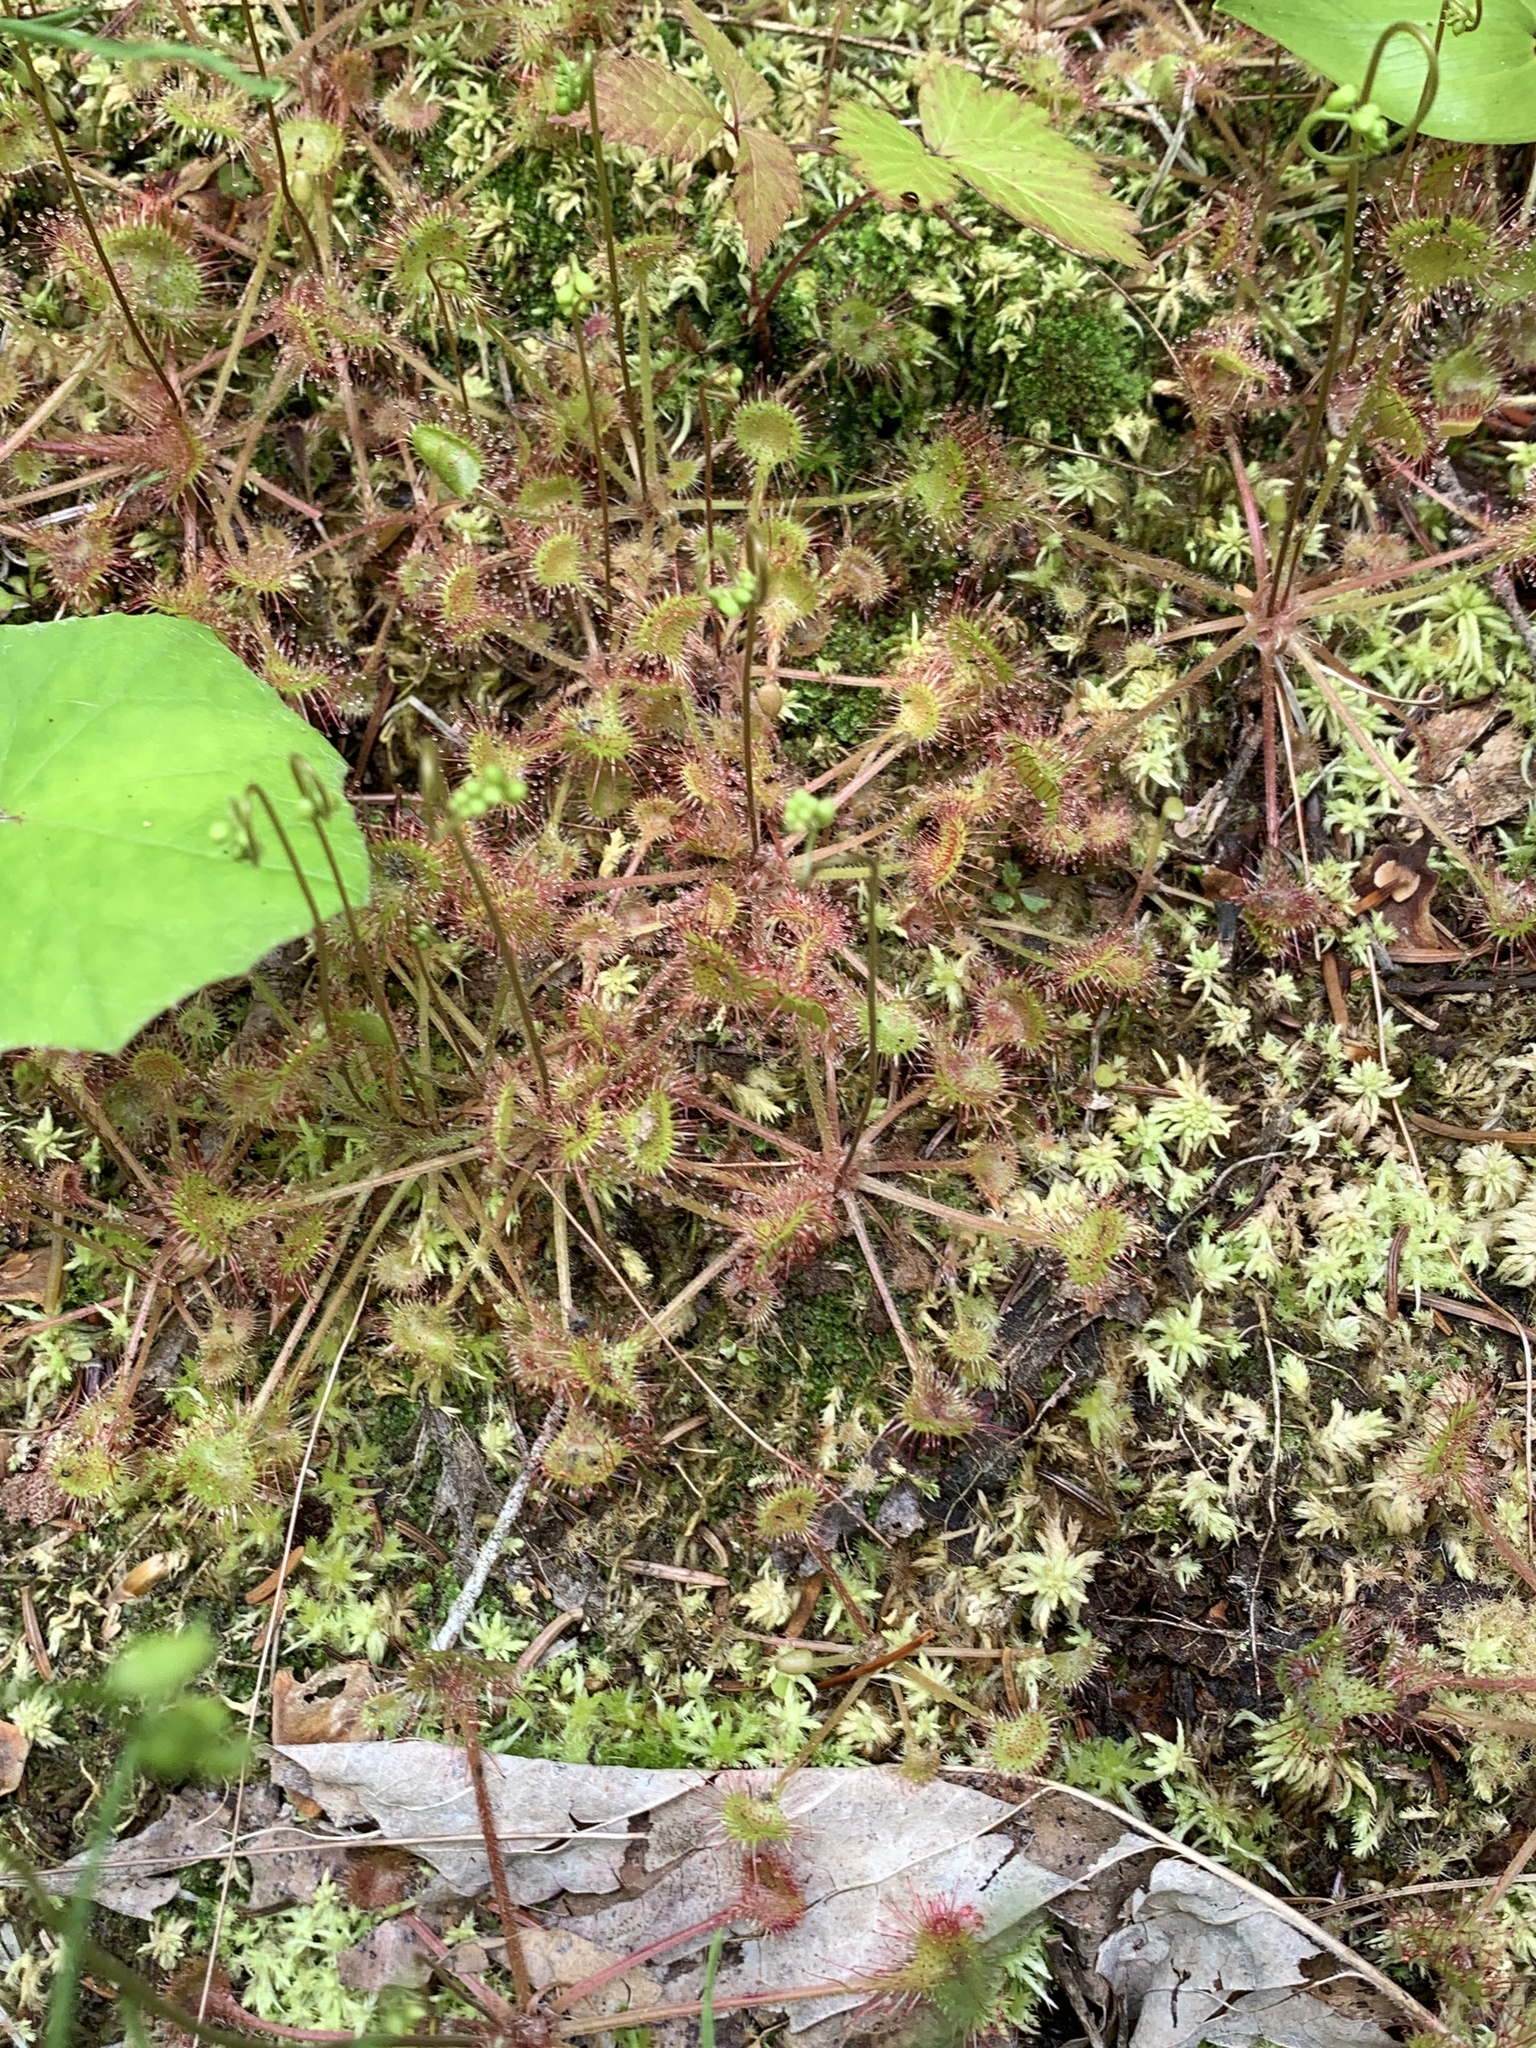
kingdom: Plantae
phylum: Tracheophyta
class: Magnoliopsida
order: Caryophyllales
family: Droseraceae
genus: Drosera
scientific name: Drosera rotundifolia
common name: Round-leaved sundew
